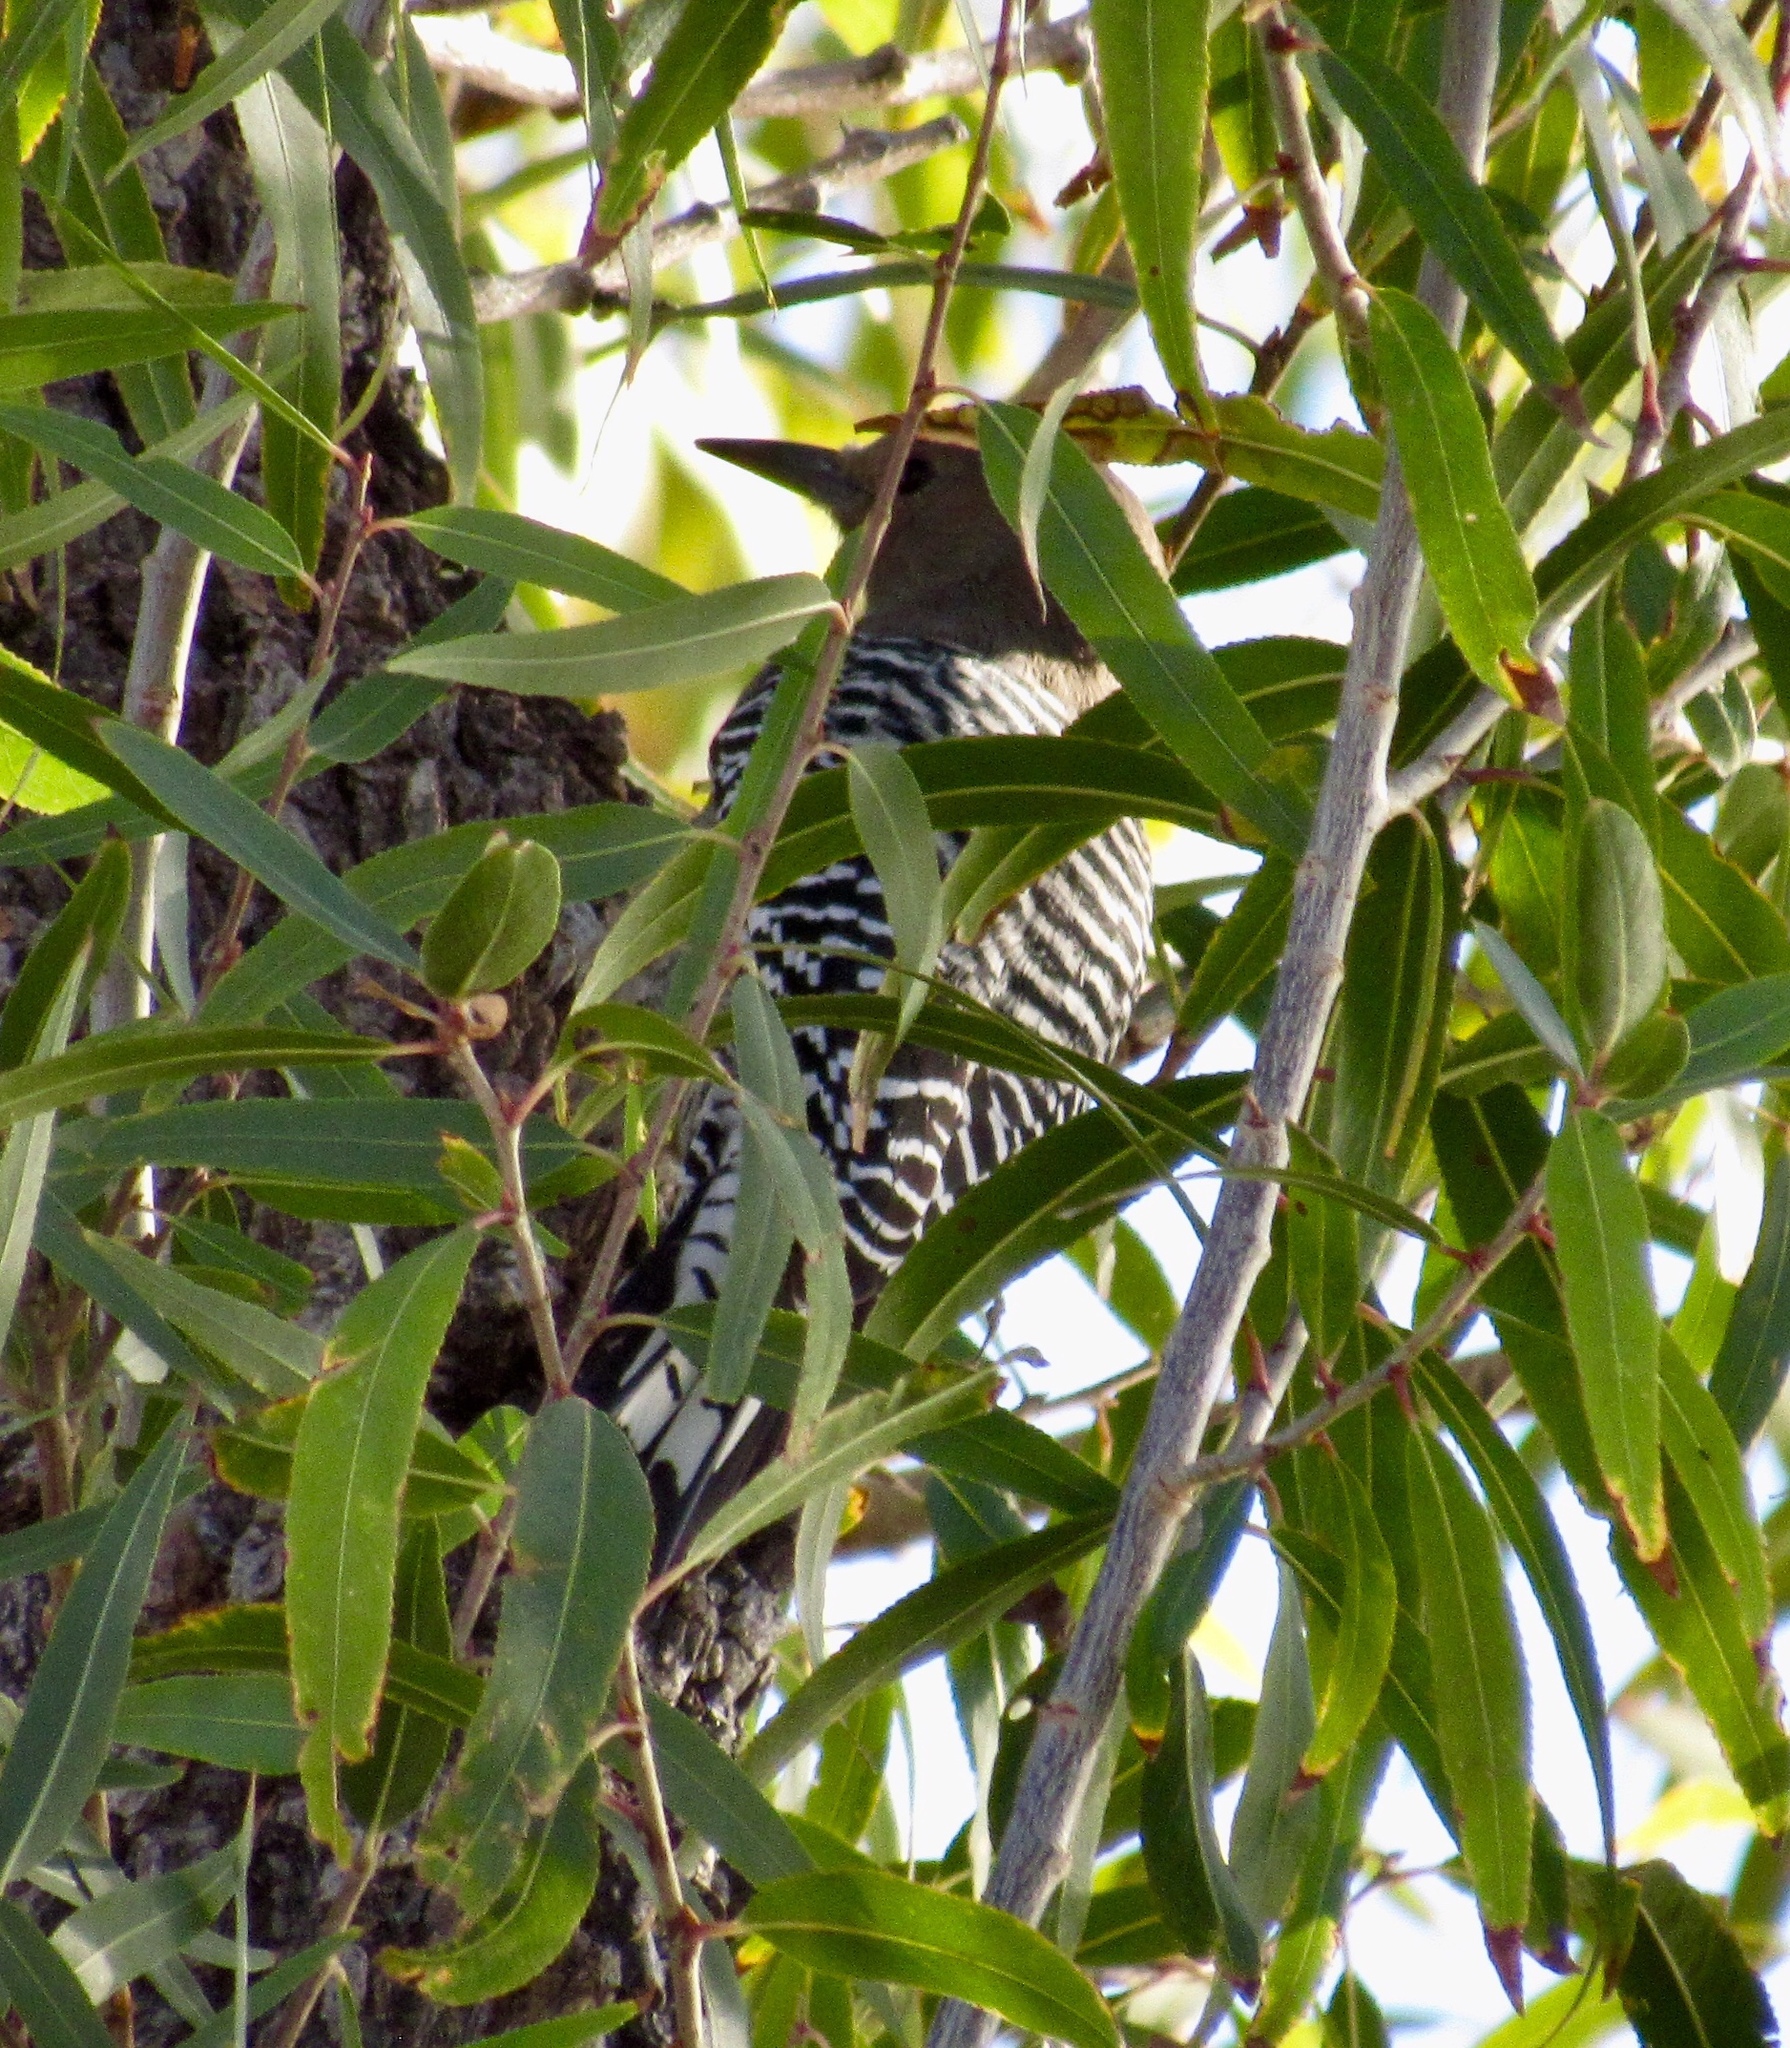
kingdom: Animalia
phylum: Chordata
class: Aves
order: Piciformes
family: Picidae
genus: Melanerpes
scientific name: Melanerpes uropygialis
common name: Gila woodpecker
